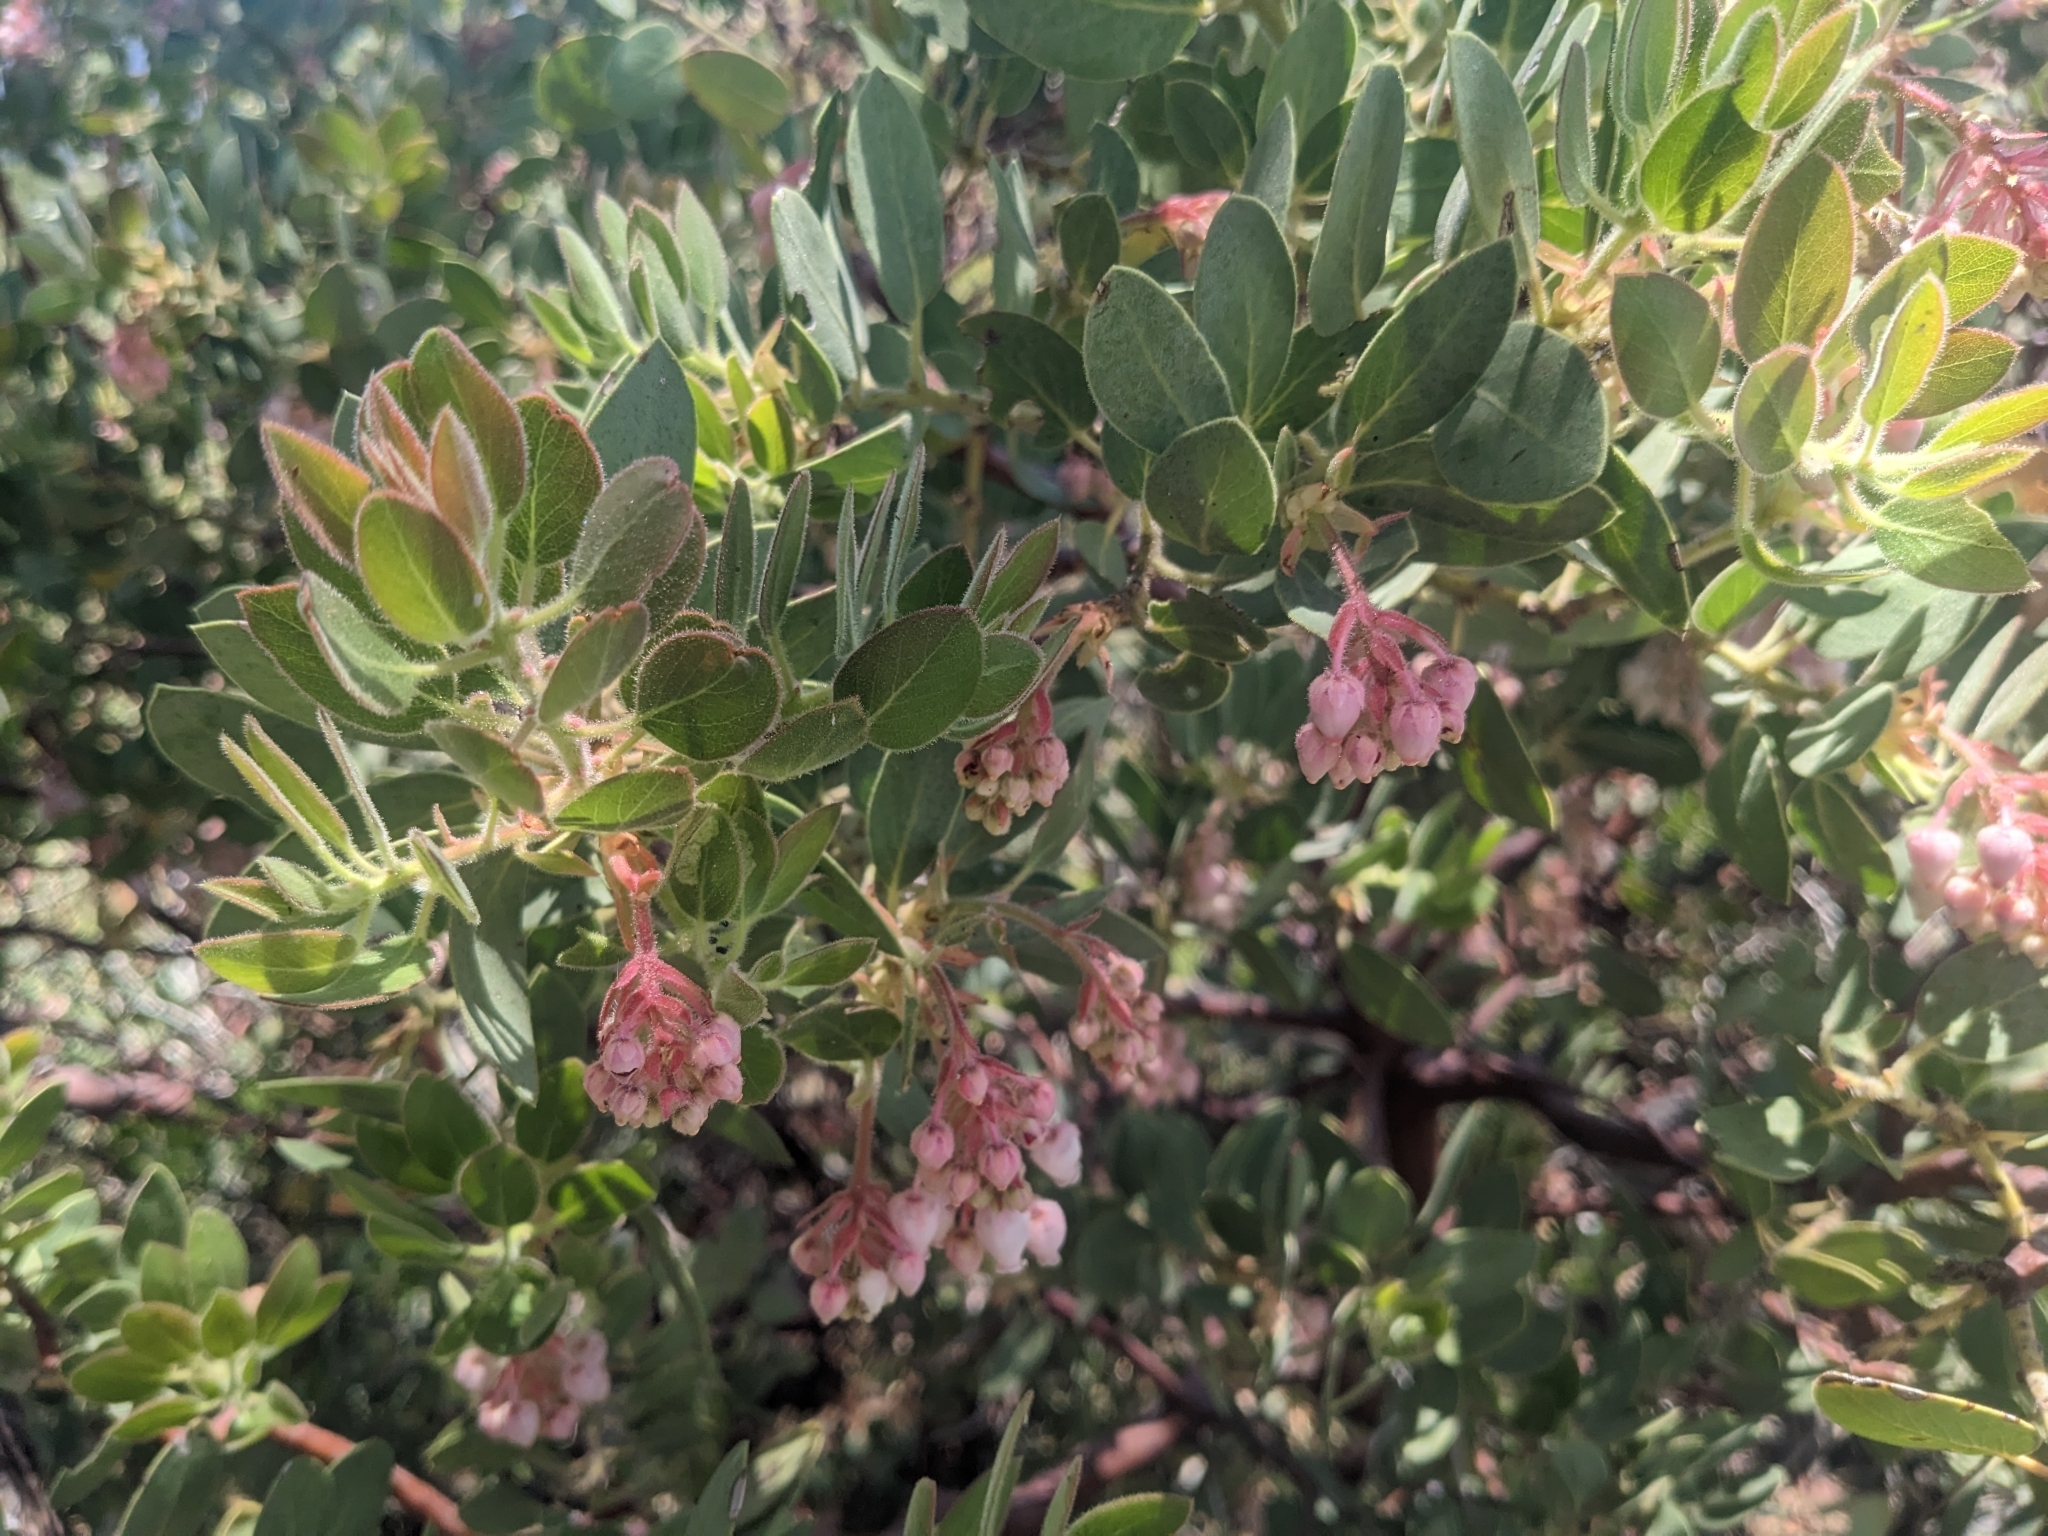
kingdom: Plantae
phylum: Tracheophyta
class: Magnoliopsida
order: Ericales
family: Ericaceae
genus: Arctostaphylos
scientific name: Arctostaphylos pringlei
